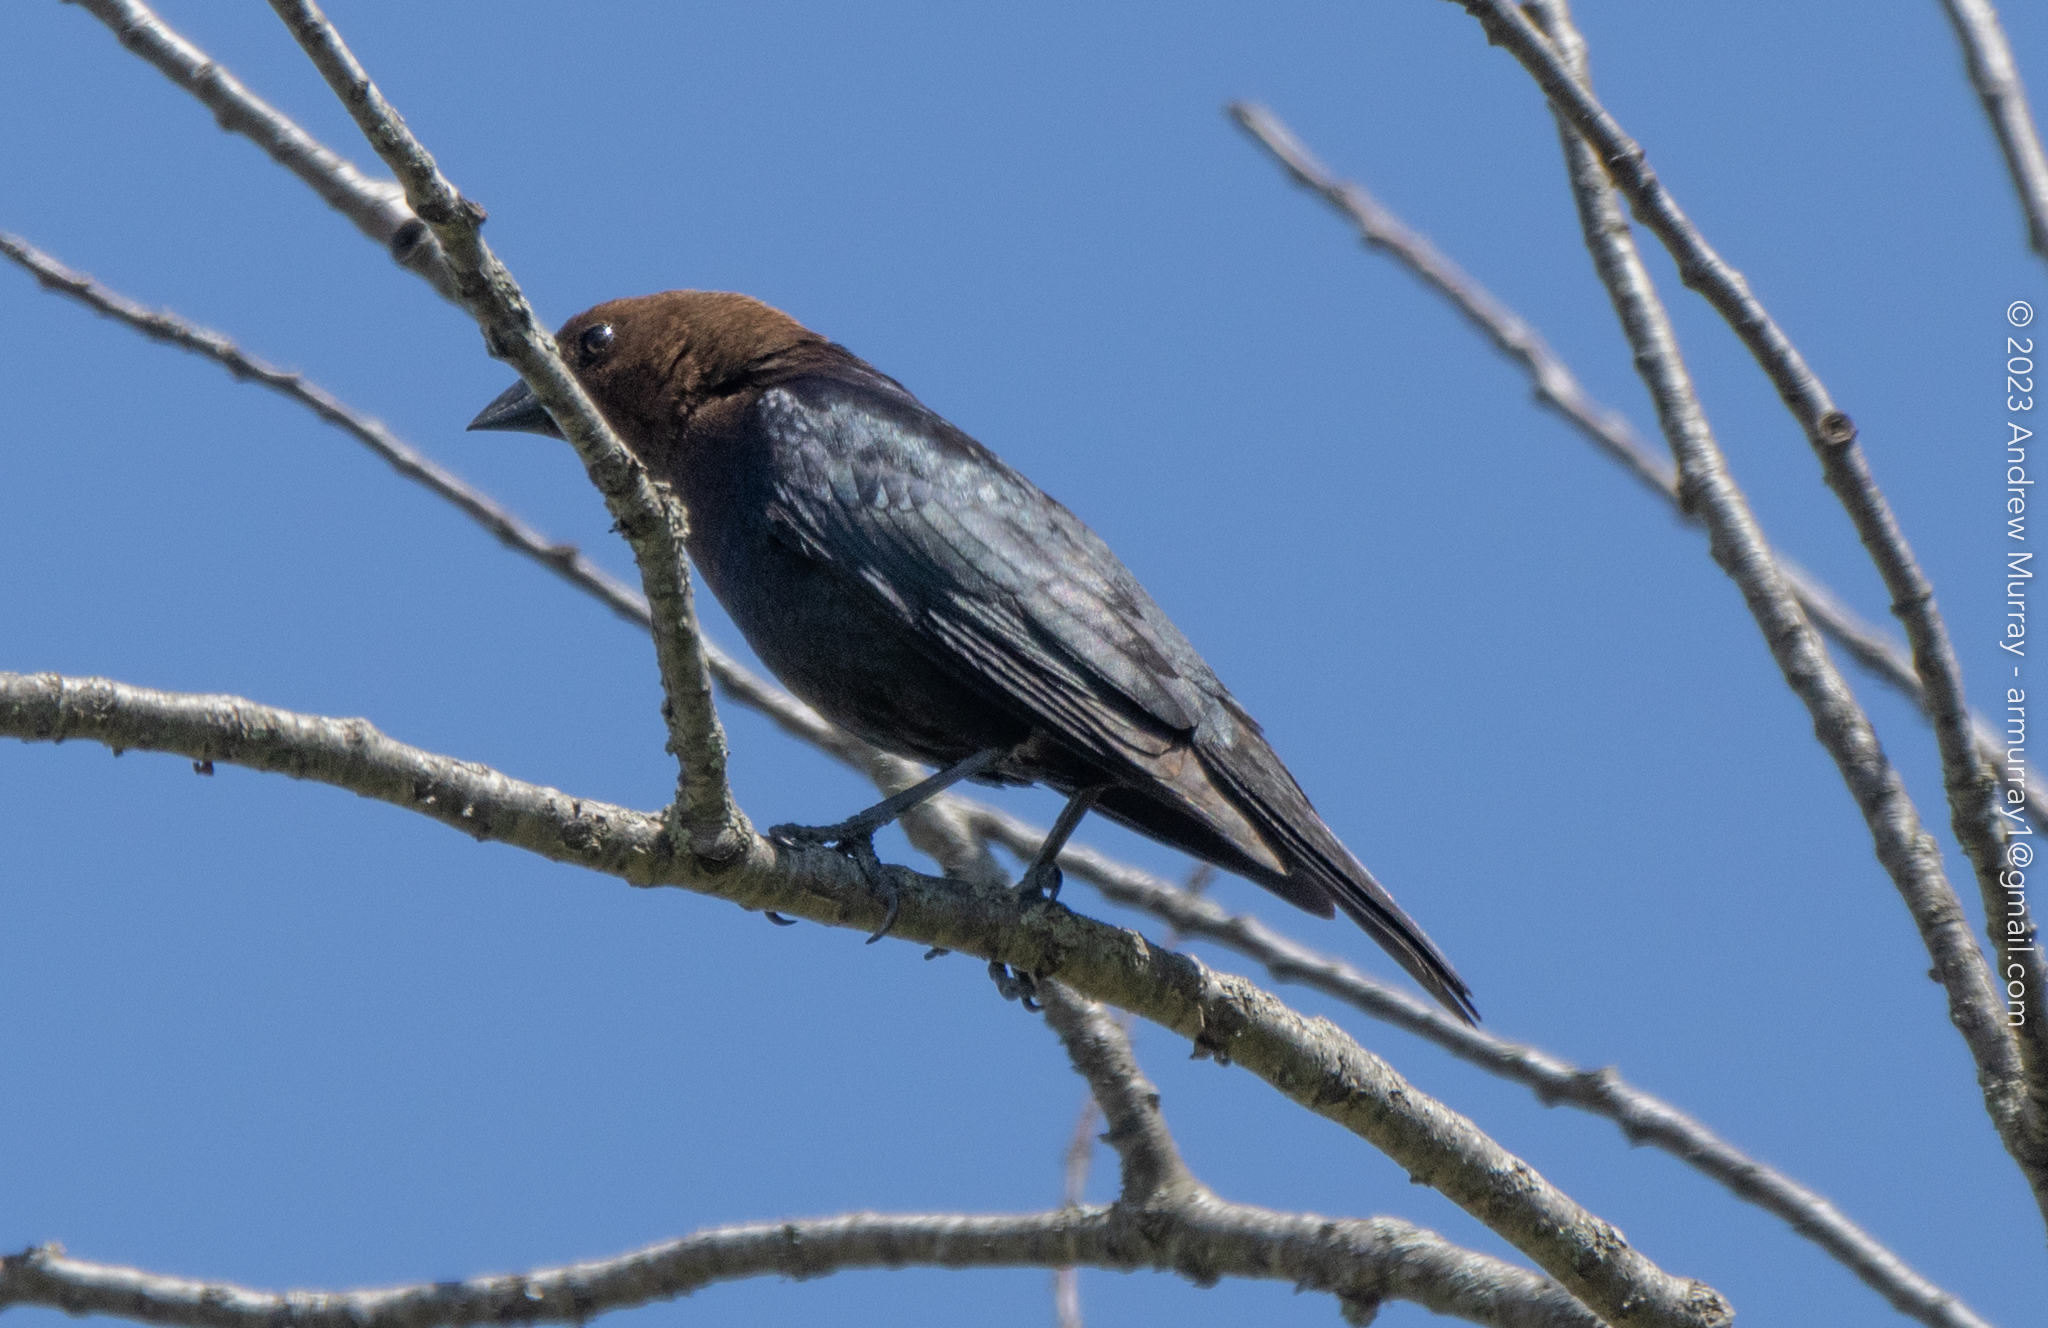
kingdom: Animalia
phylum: Chordata
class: Aves
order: Passeriformes
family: Icteridae
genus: Molothrus
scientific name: Molothrus ater
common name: Brown-headed cowbird
